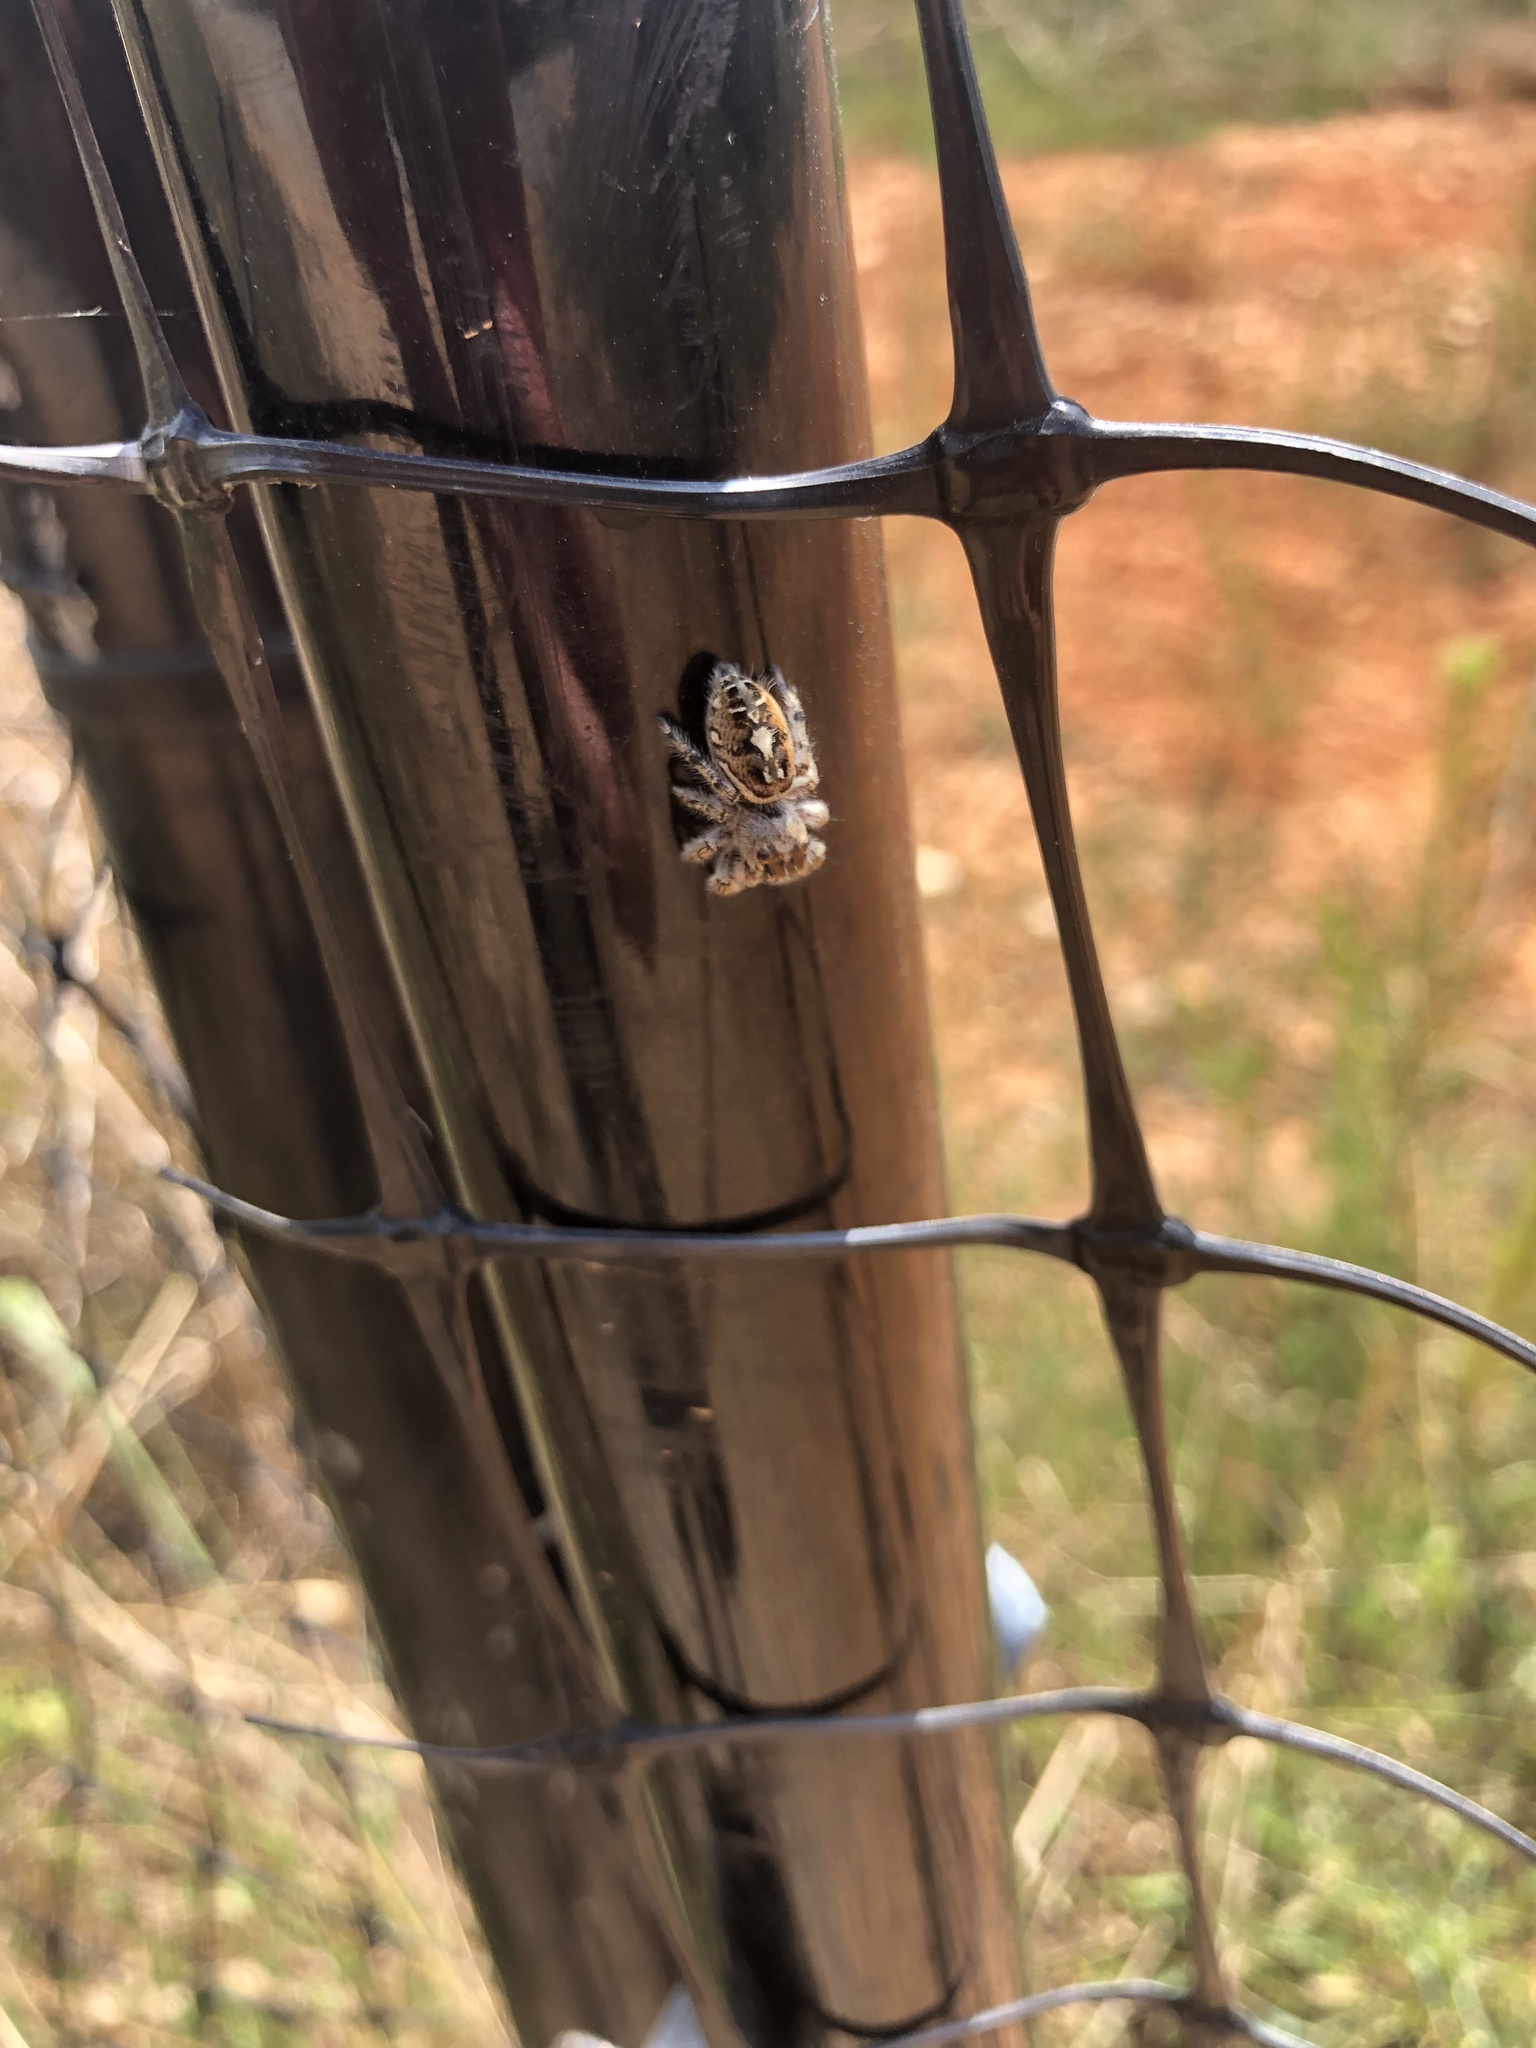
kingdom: Animalia
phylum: Arthropoda
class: Arachnida
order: Araneae
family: Salticidae
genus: Phidippus
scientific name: Phidippus putnami
